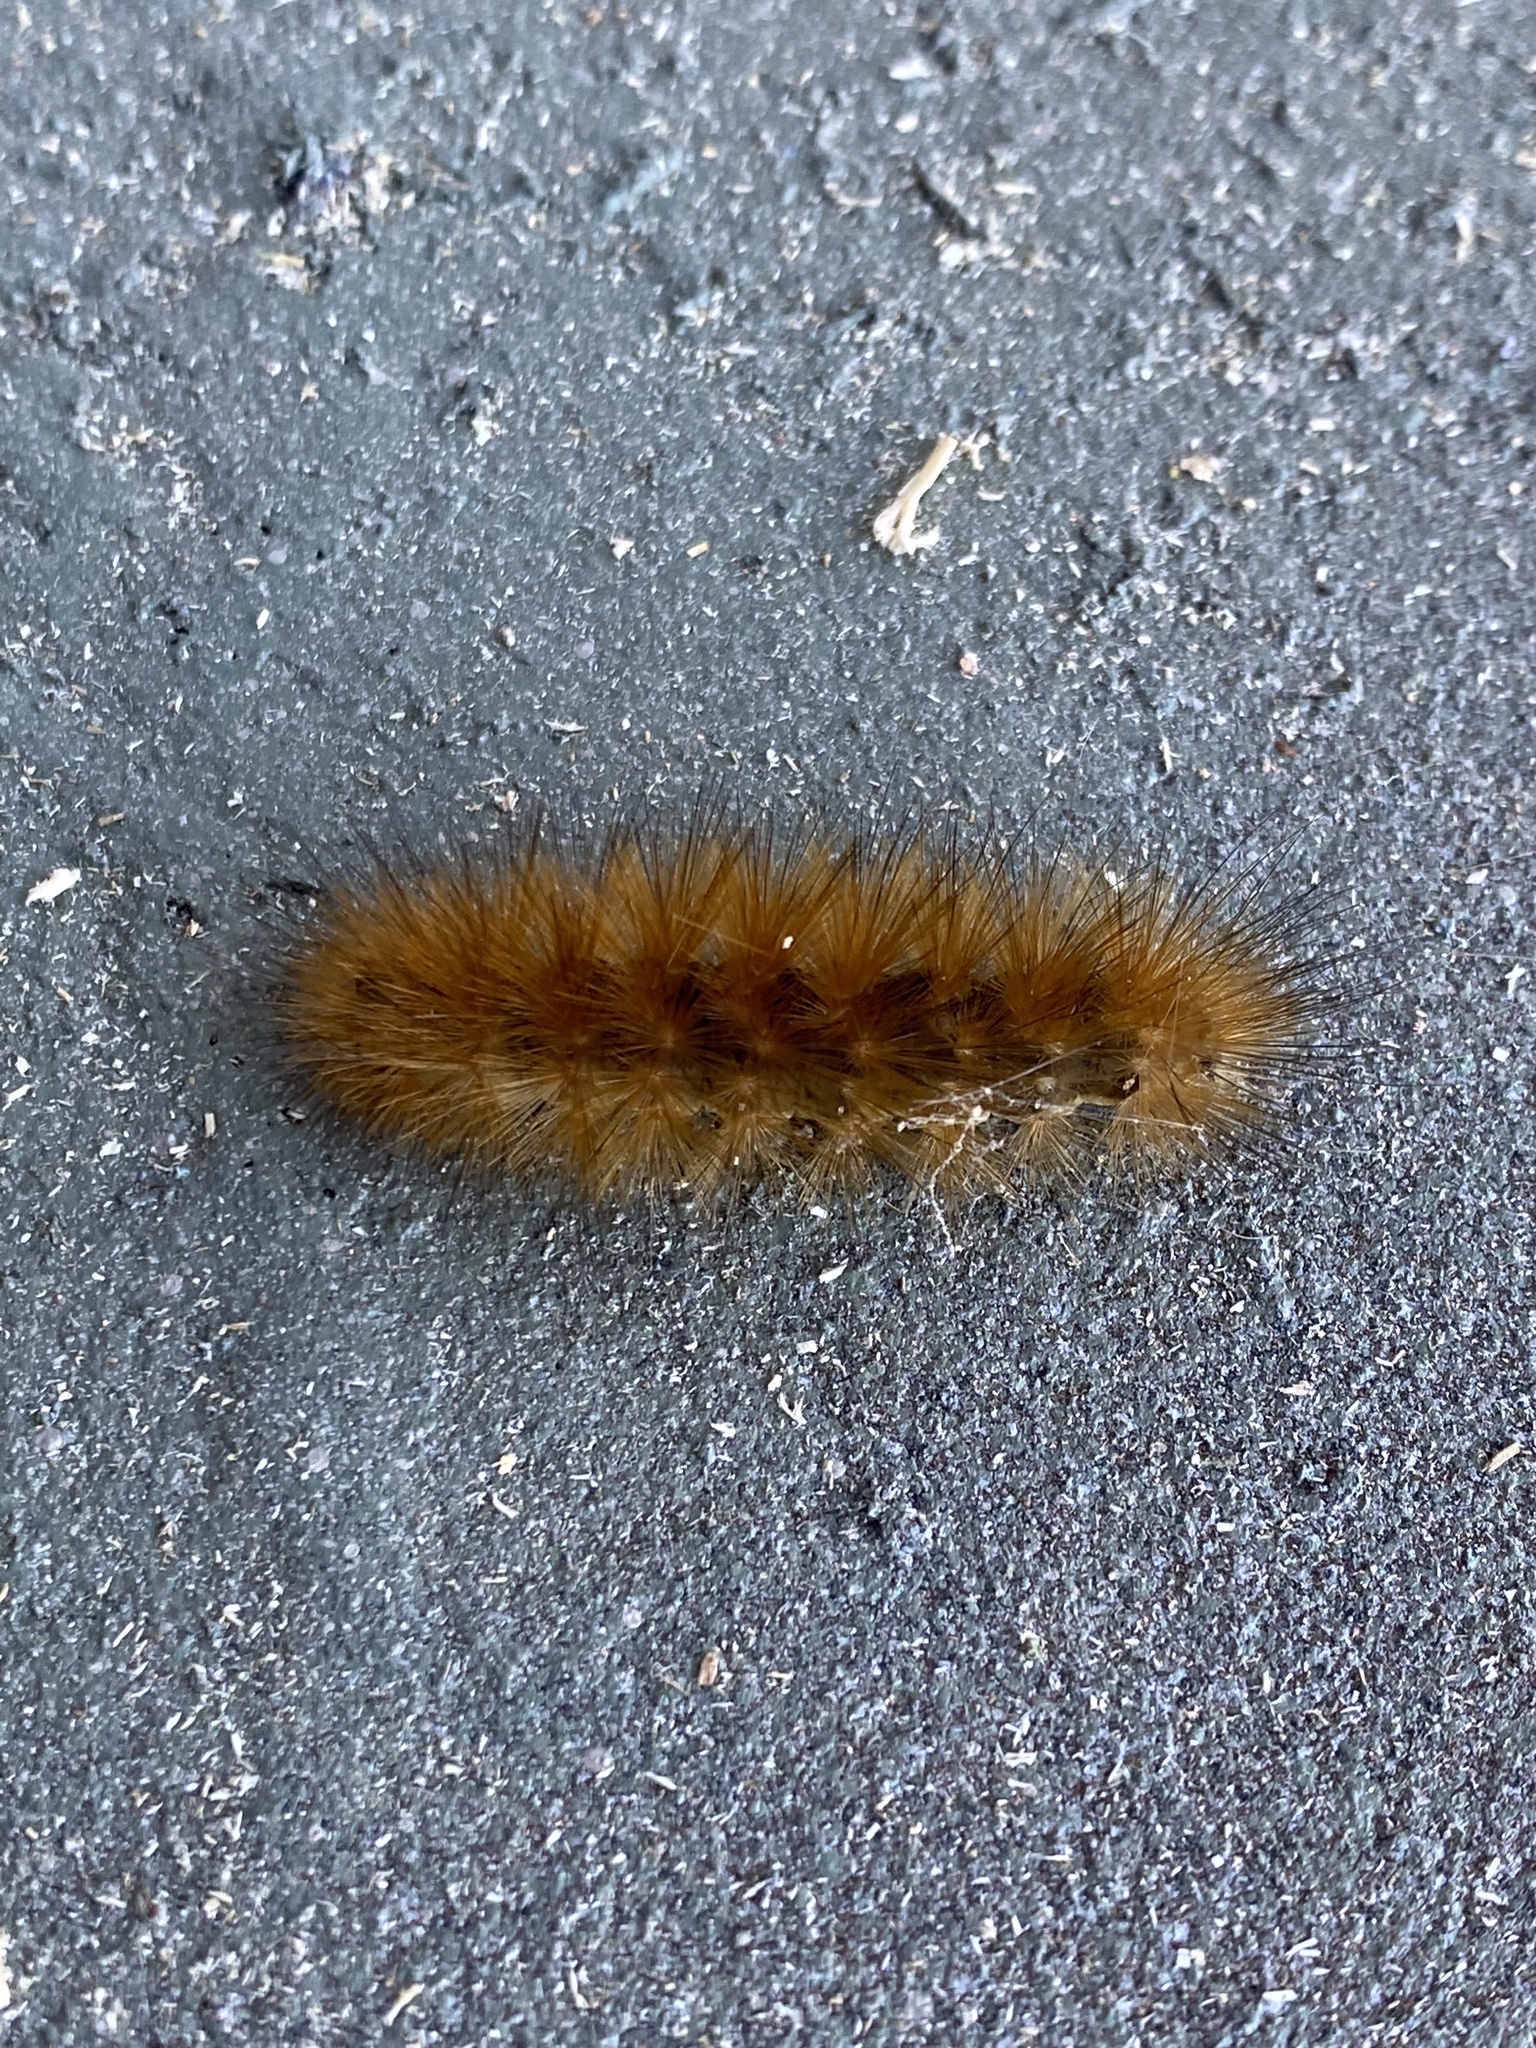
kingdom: Animalia
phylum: Arthropoda
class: Insecta
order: Lepidoptera
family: Erebidae
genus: Spilosoma
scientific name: Spilosoma virginica
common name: Virginia tiger moth
